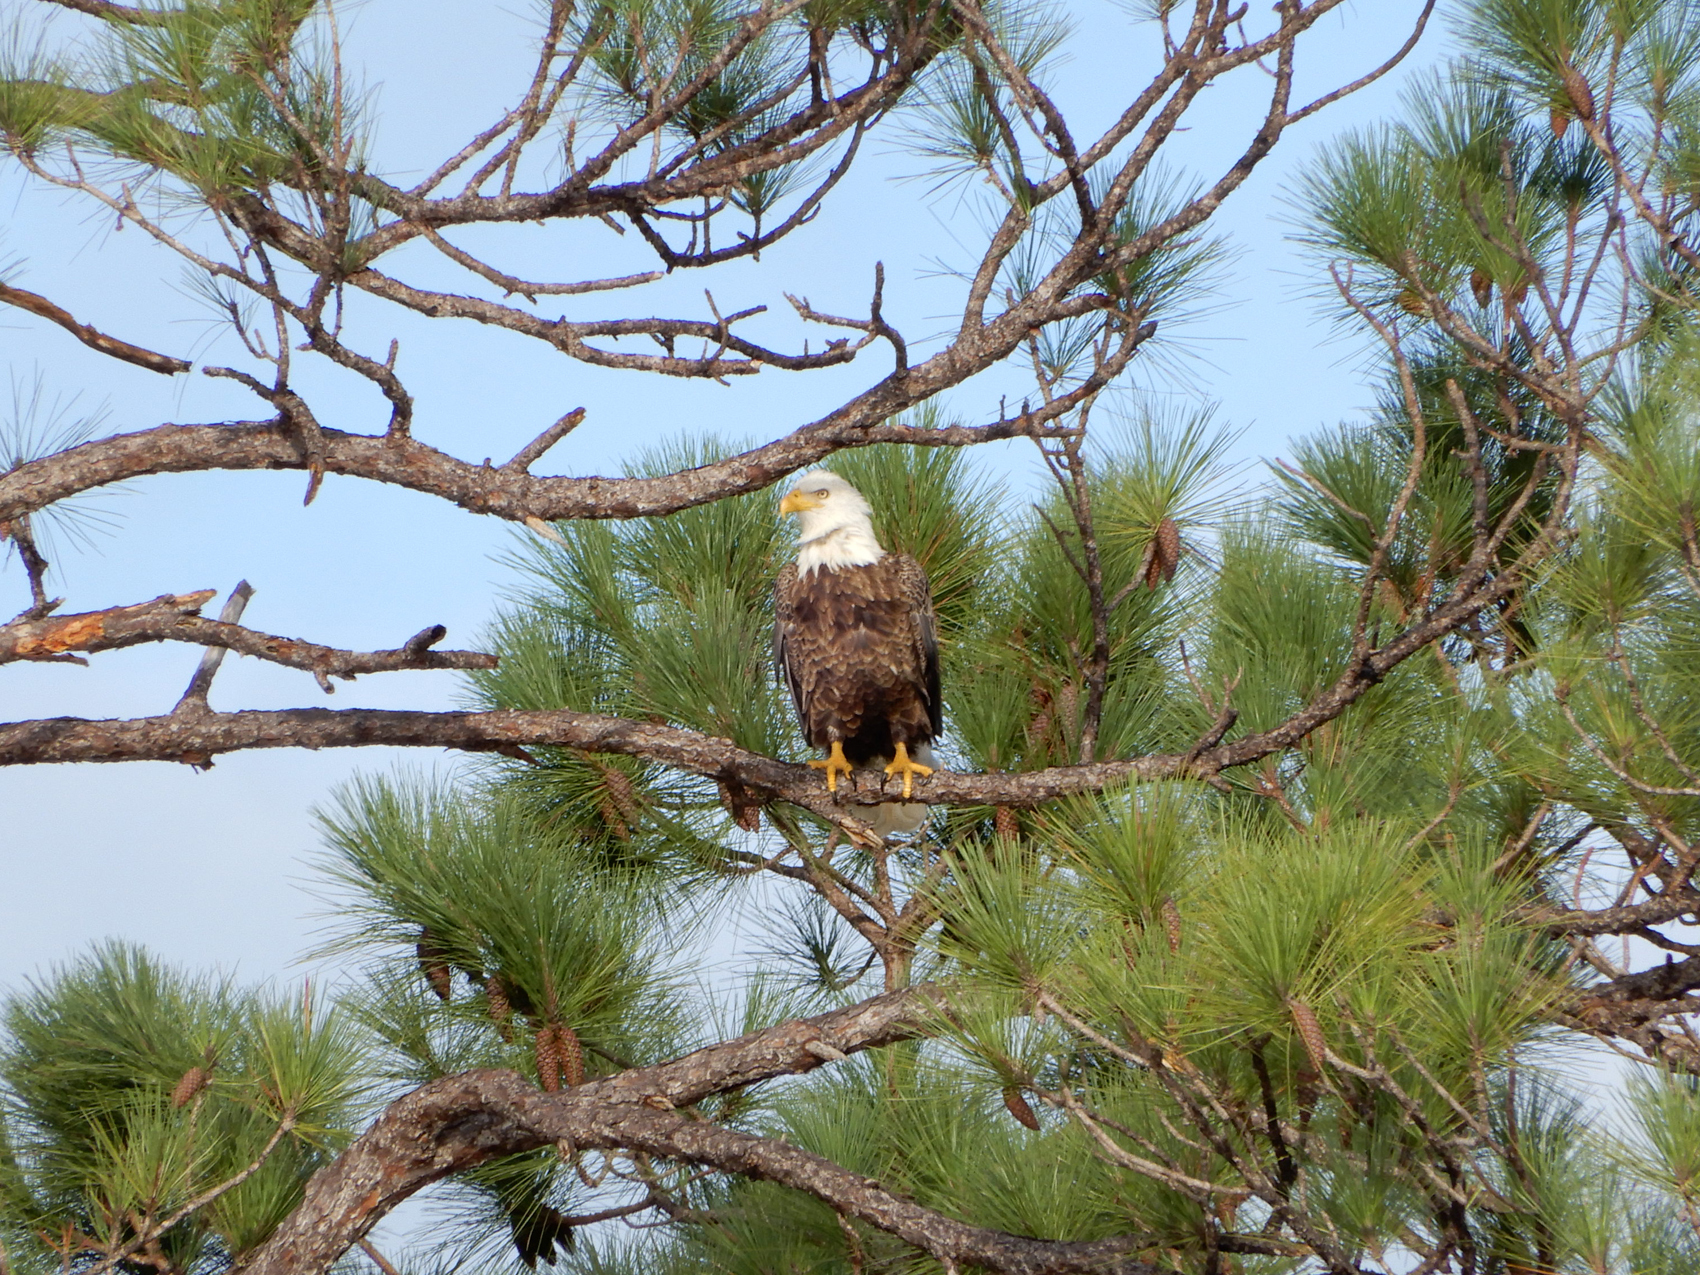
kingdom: Animalia
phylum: Chordata
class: Aves
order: Accipitriformes
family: Accipitridae
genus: Haliaeetus
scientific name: Haliaeetus leucocephalus
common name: Bald eagle
